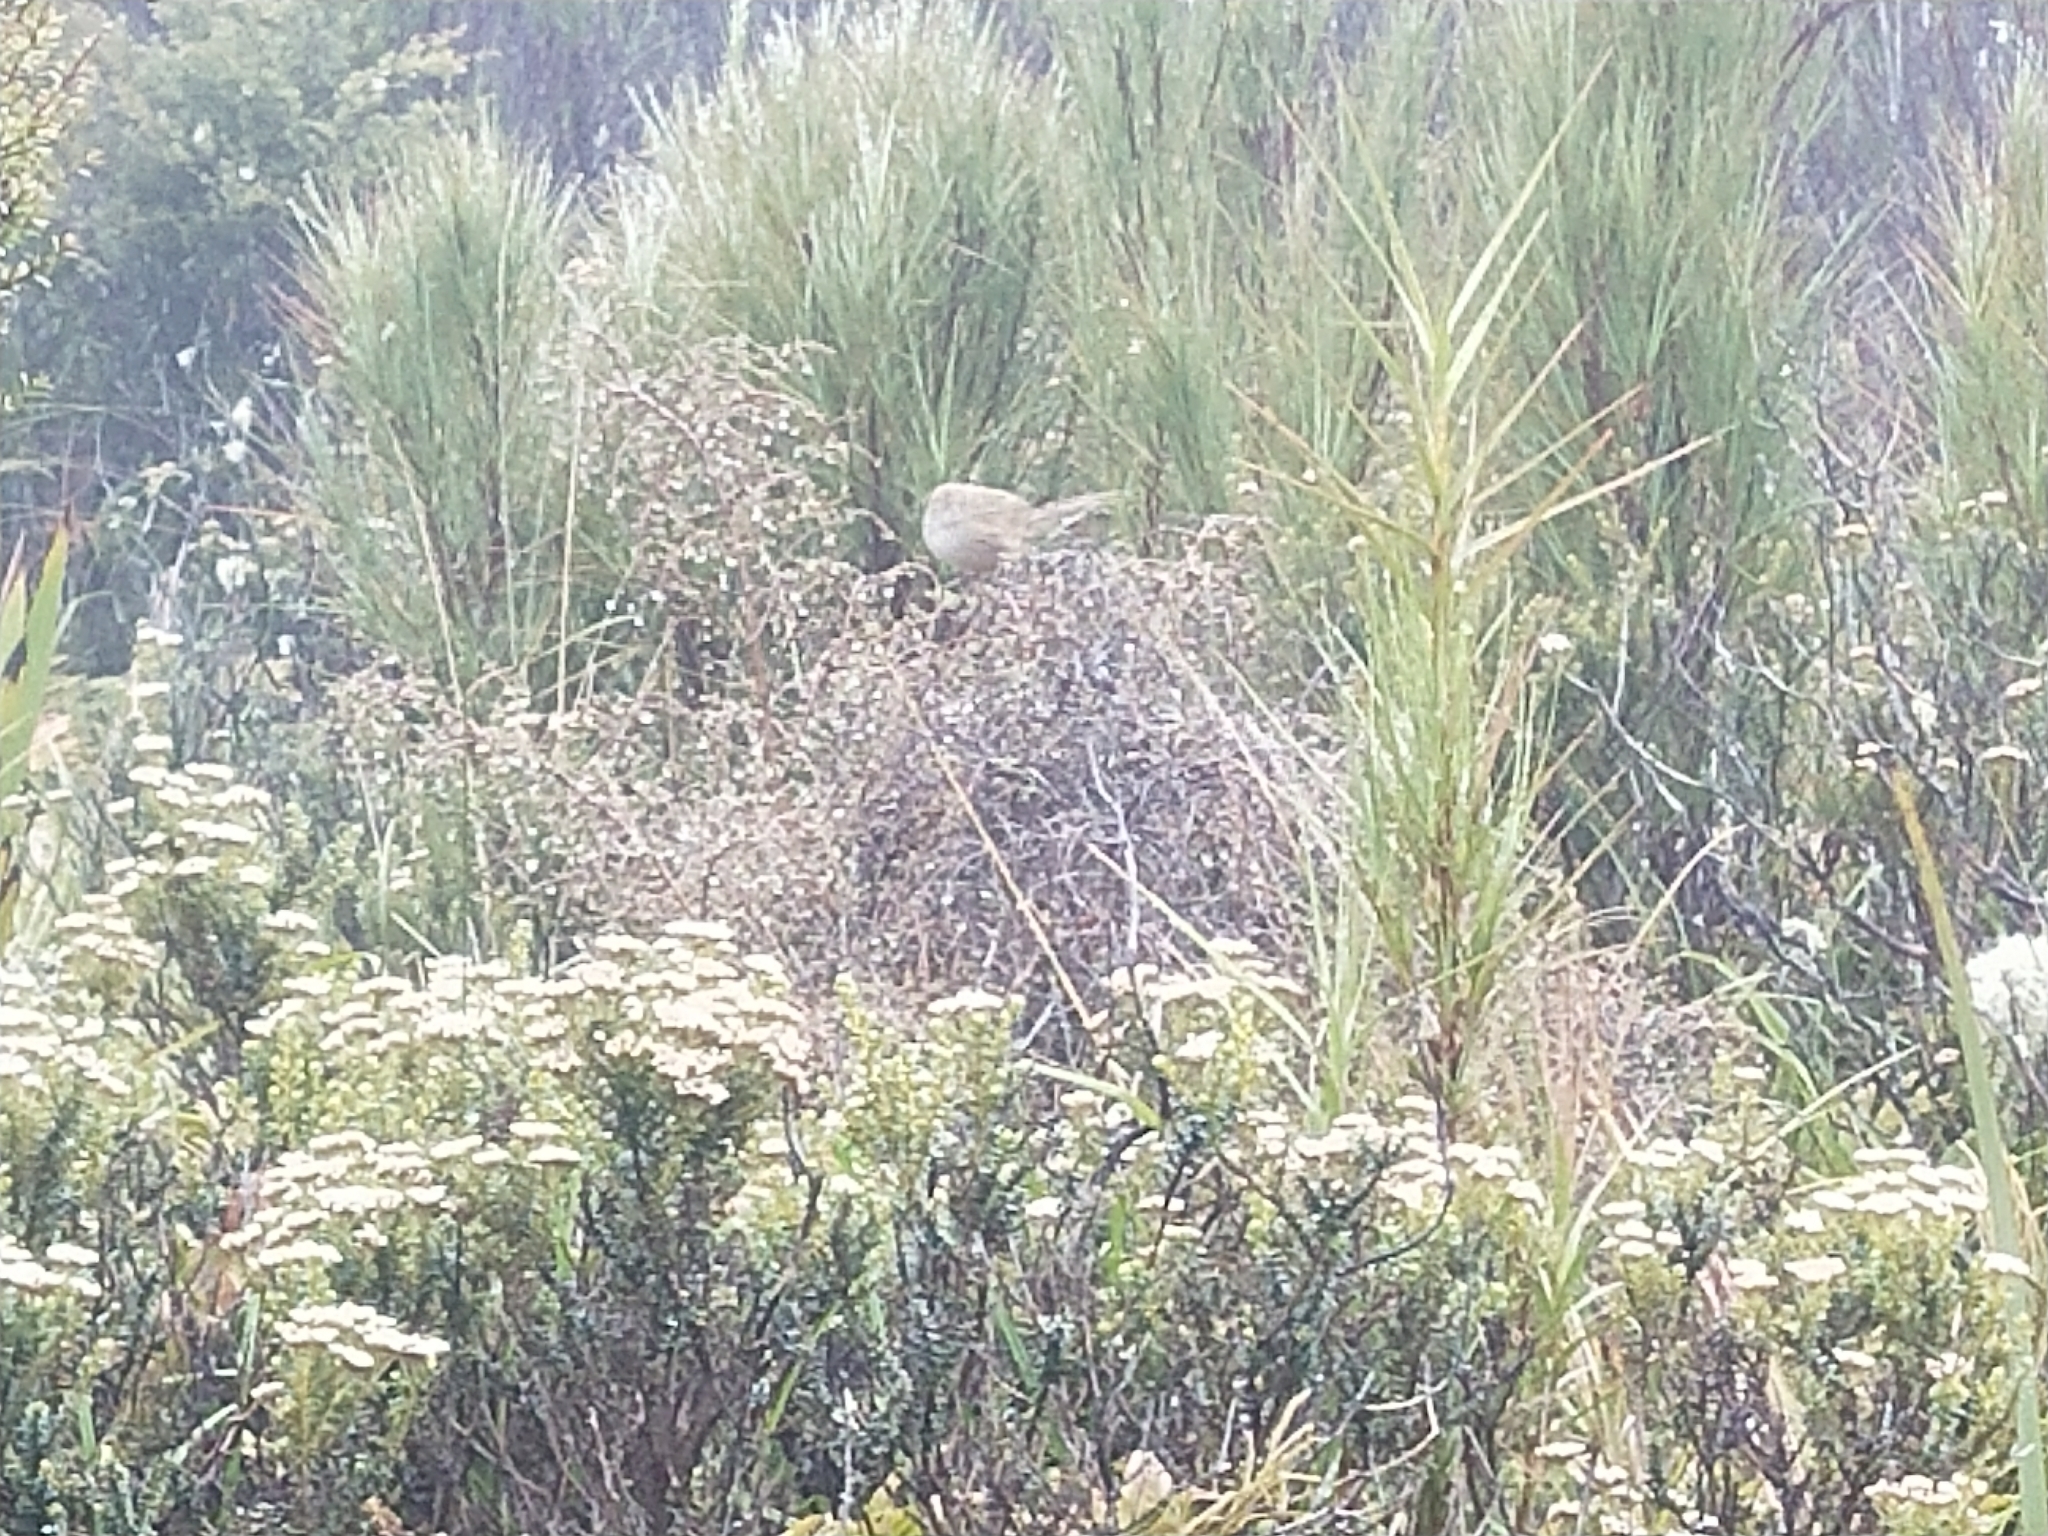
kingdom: Animalia
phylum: Chordata
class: Aves
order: Passeriformes
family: Locustellidae
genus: Poodytes
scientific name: Poodytes punctatus
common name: New zealand fernbird
